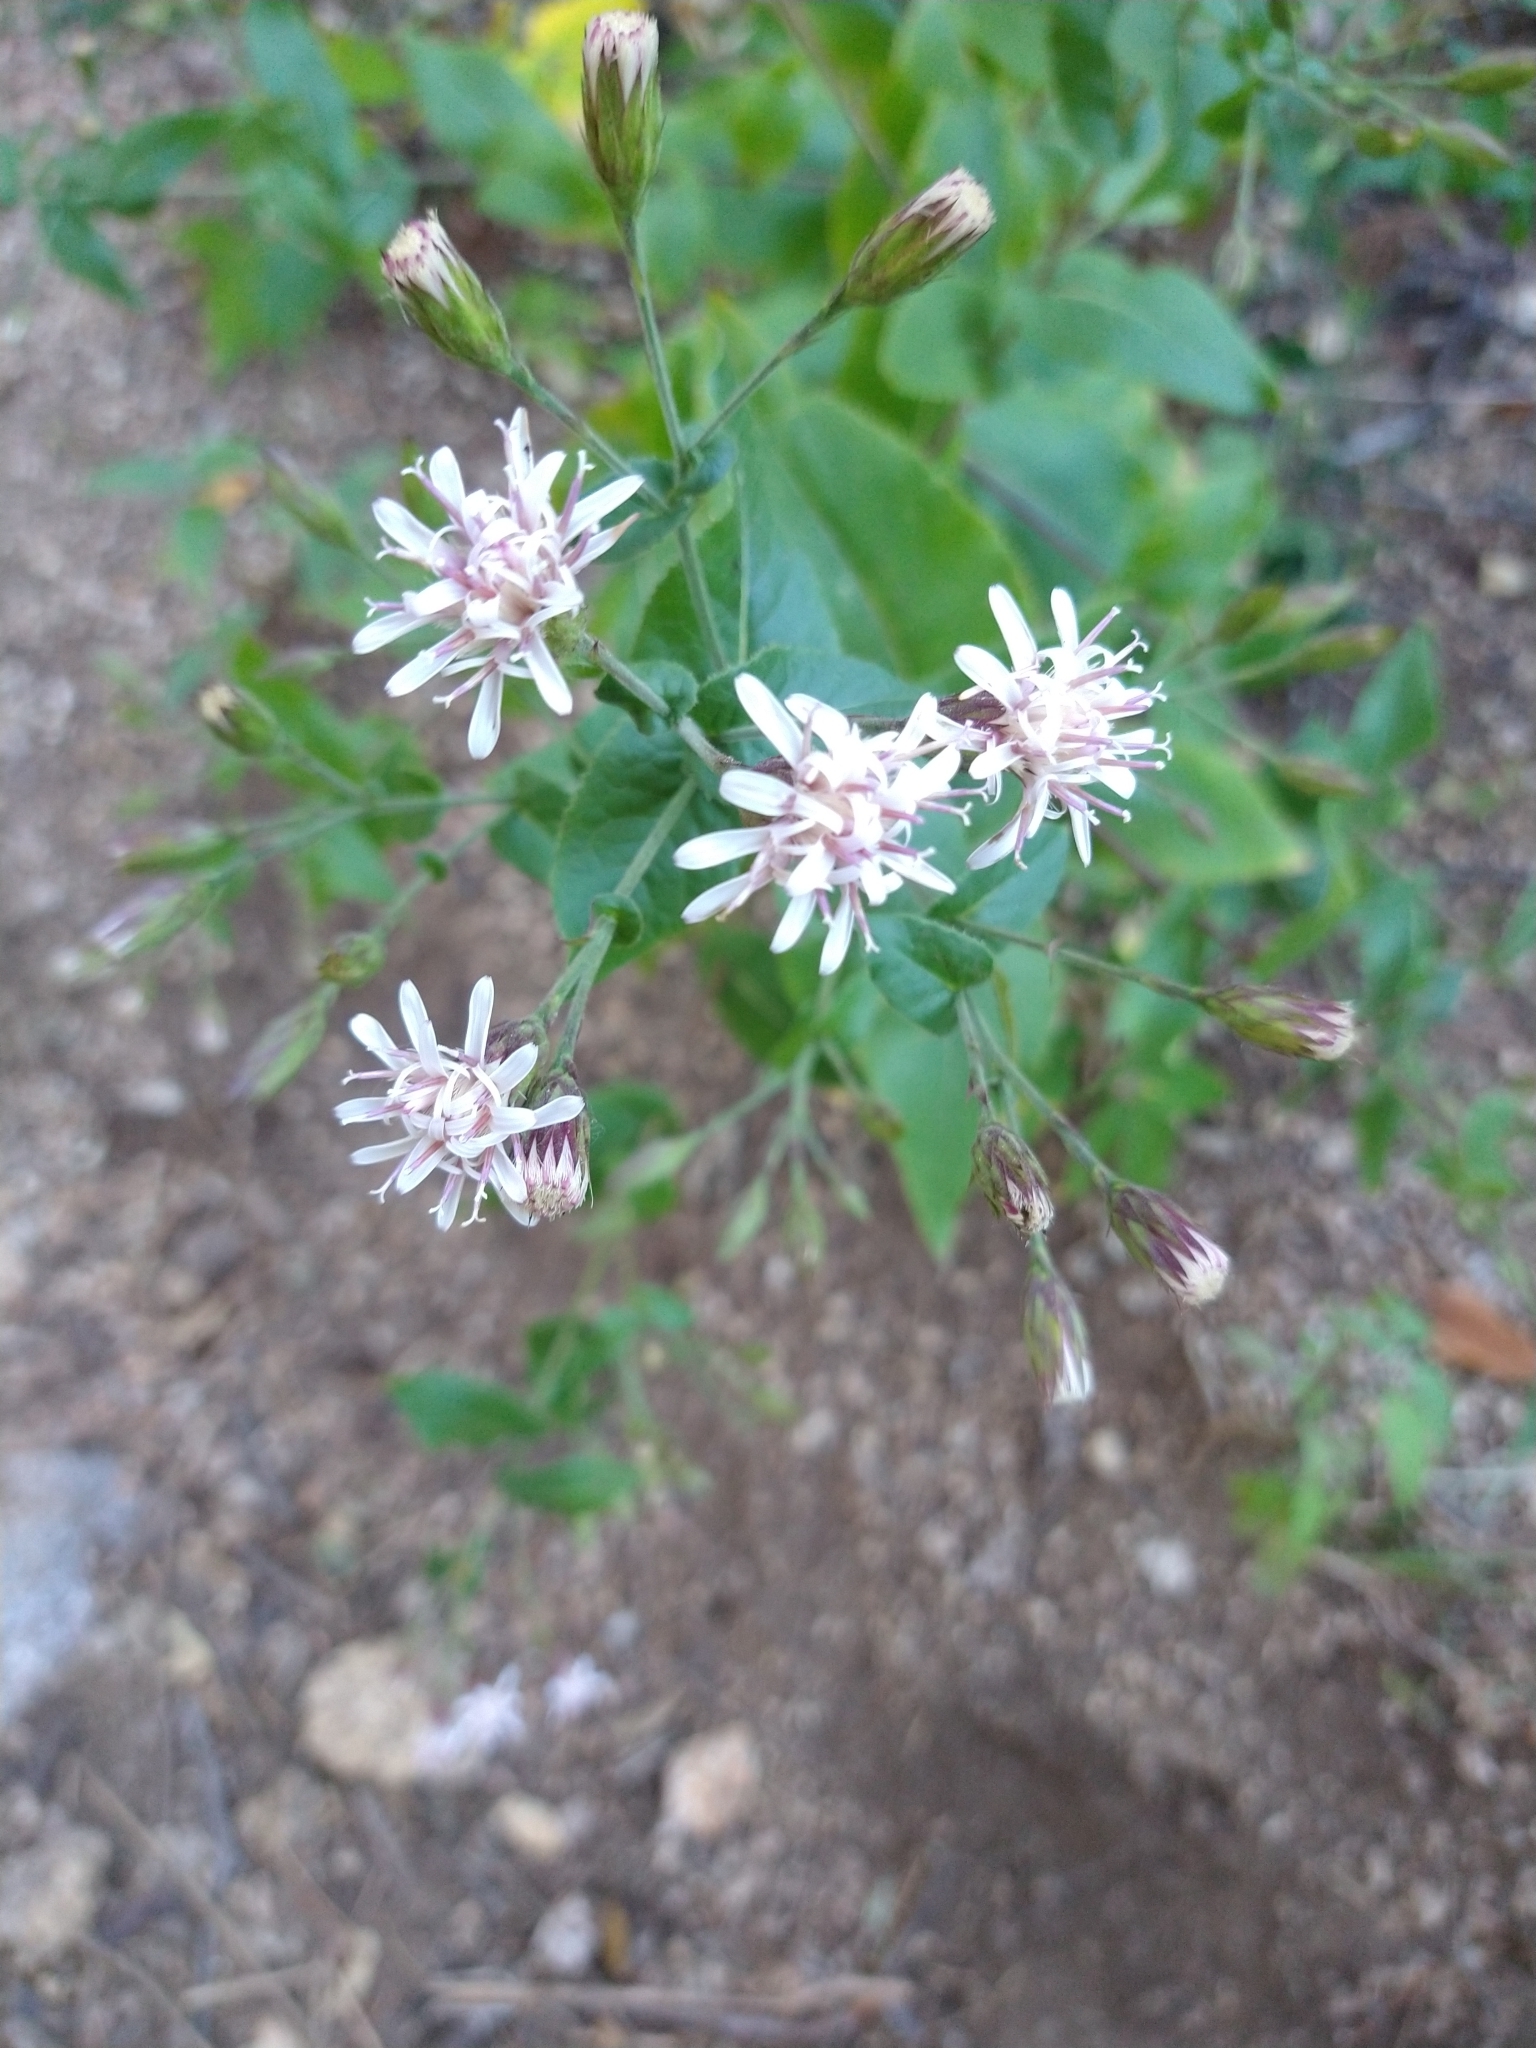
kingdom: Plantae
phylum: Tracheophyta
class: Magnoliopsida
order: Asterales
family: Asteraceae
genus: Acourtia
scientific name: Acourtia pinetorum
